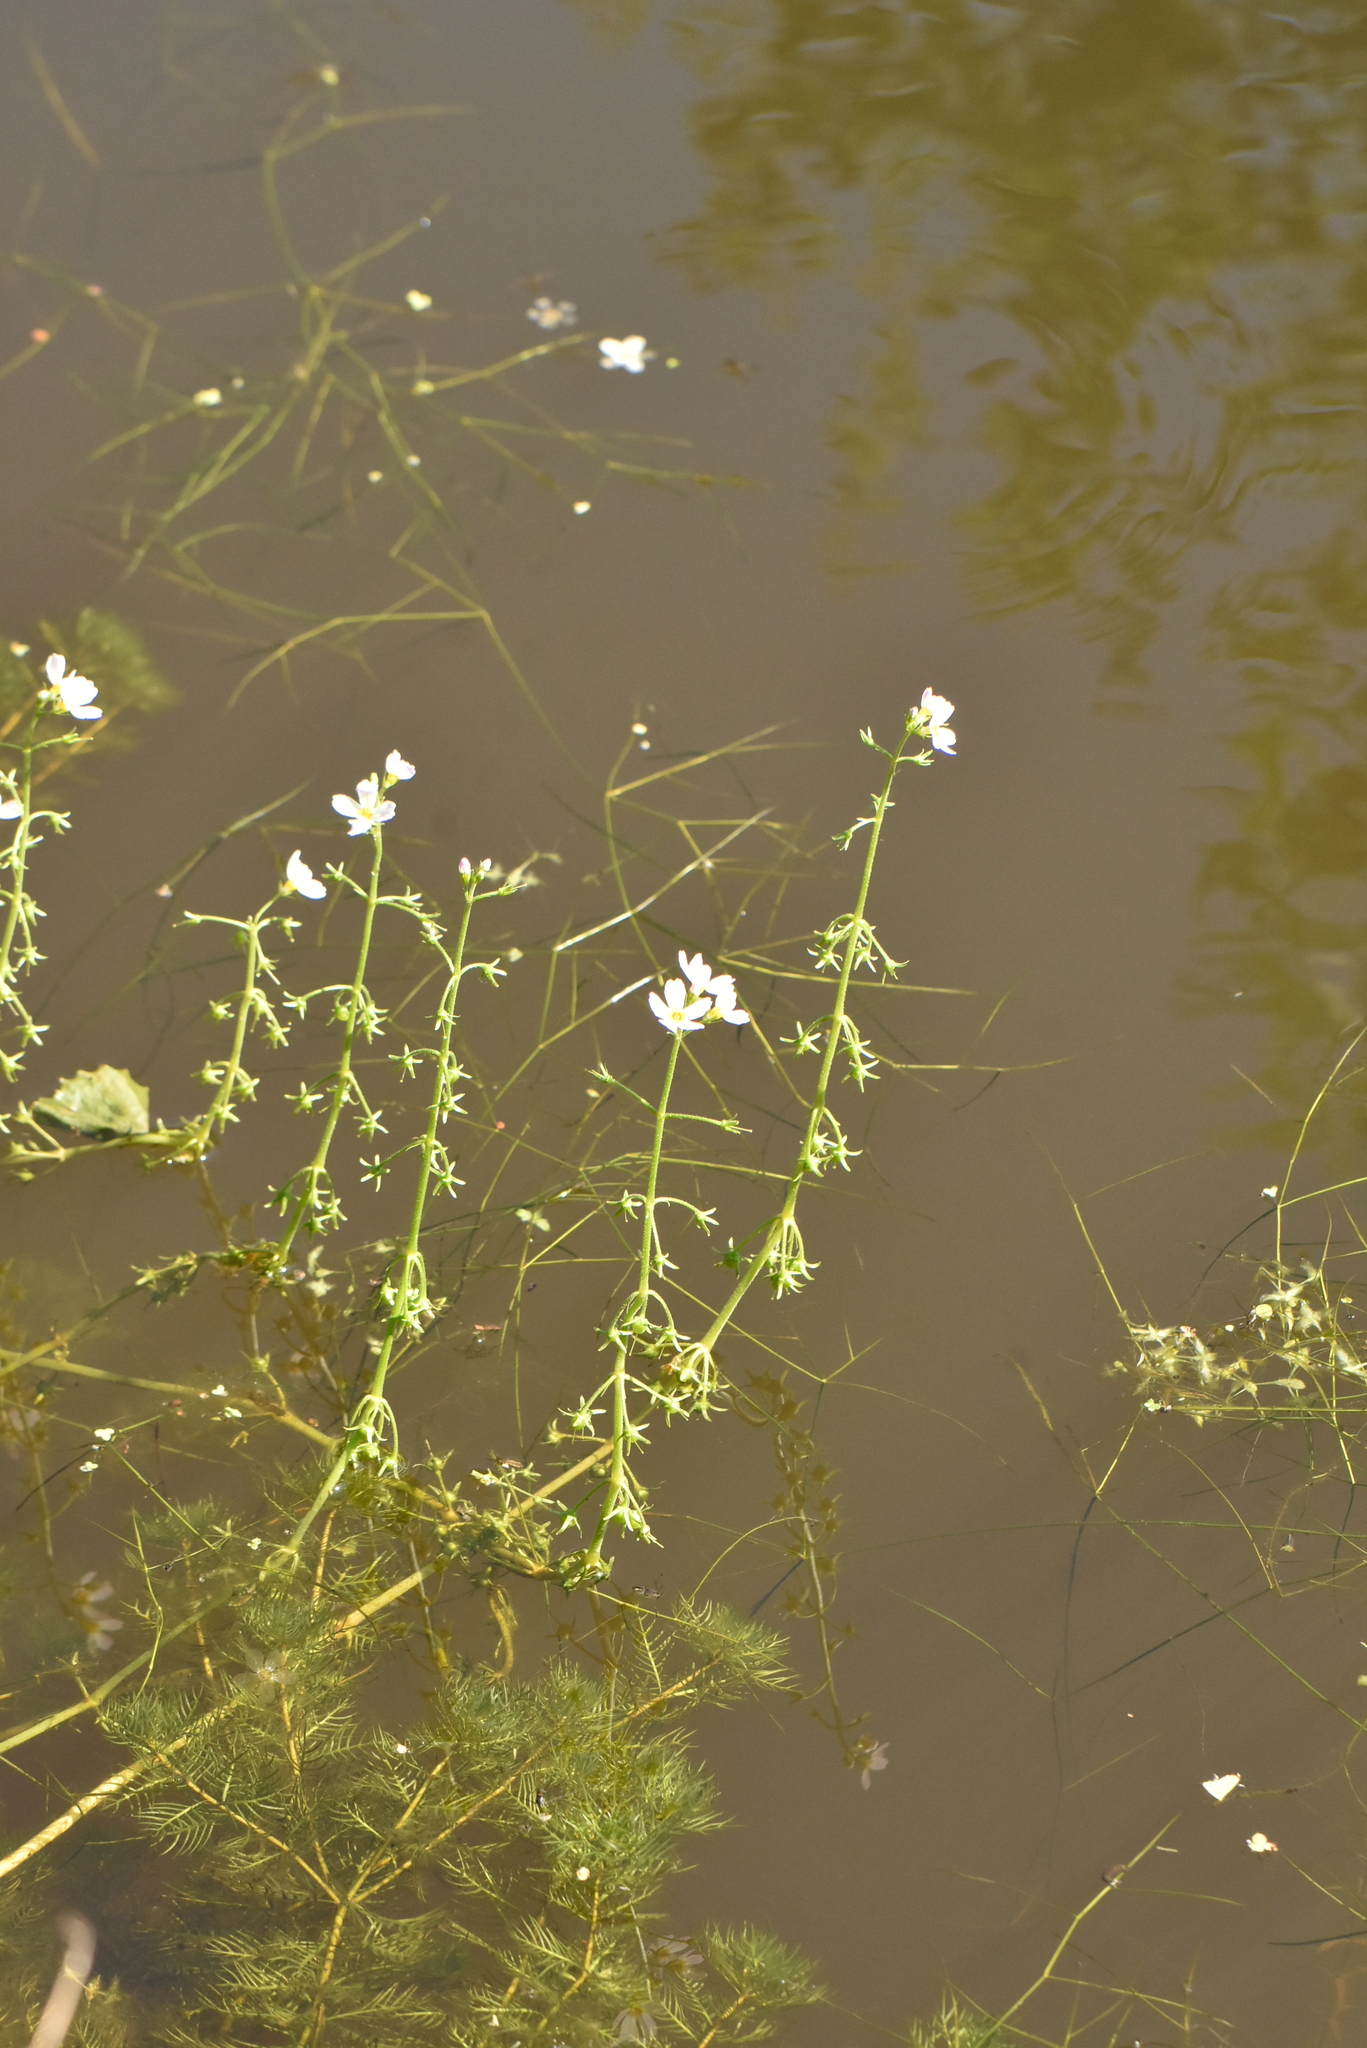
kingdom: Plantae
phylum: Tracheophyta
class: Magnoliopsida
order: Ericales
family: Primulaceae
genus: Hottonia
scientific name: Hottonia palustris
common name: Water-violet
